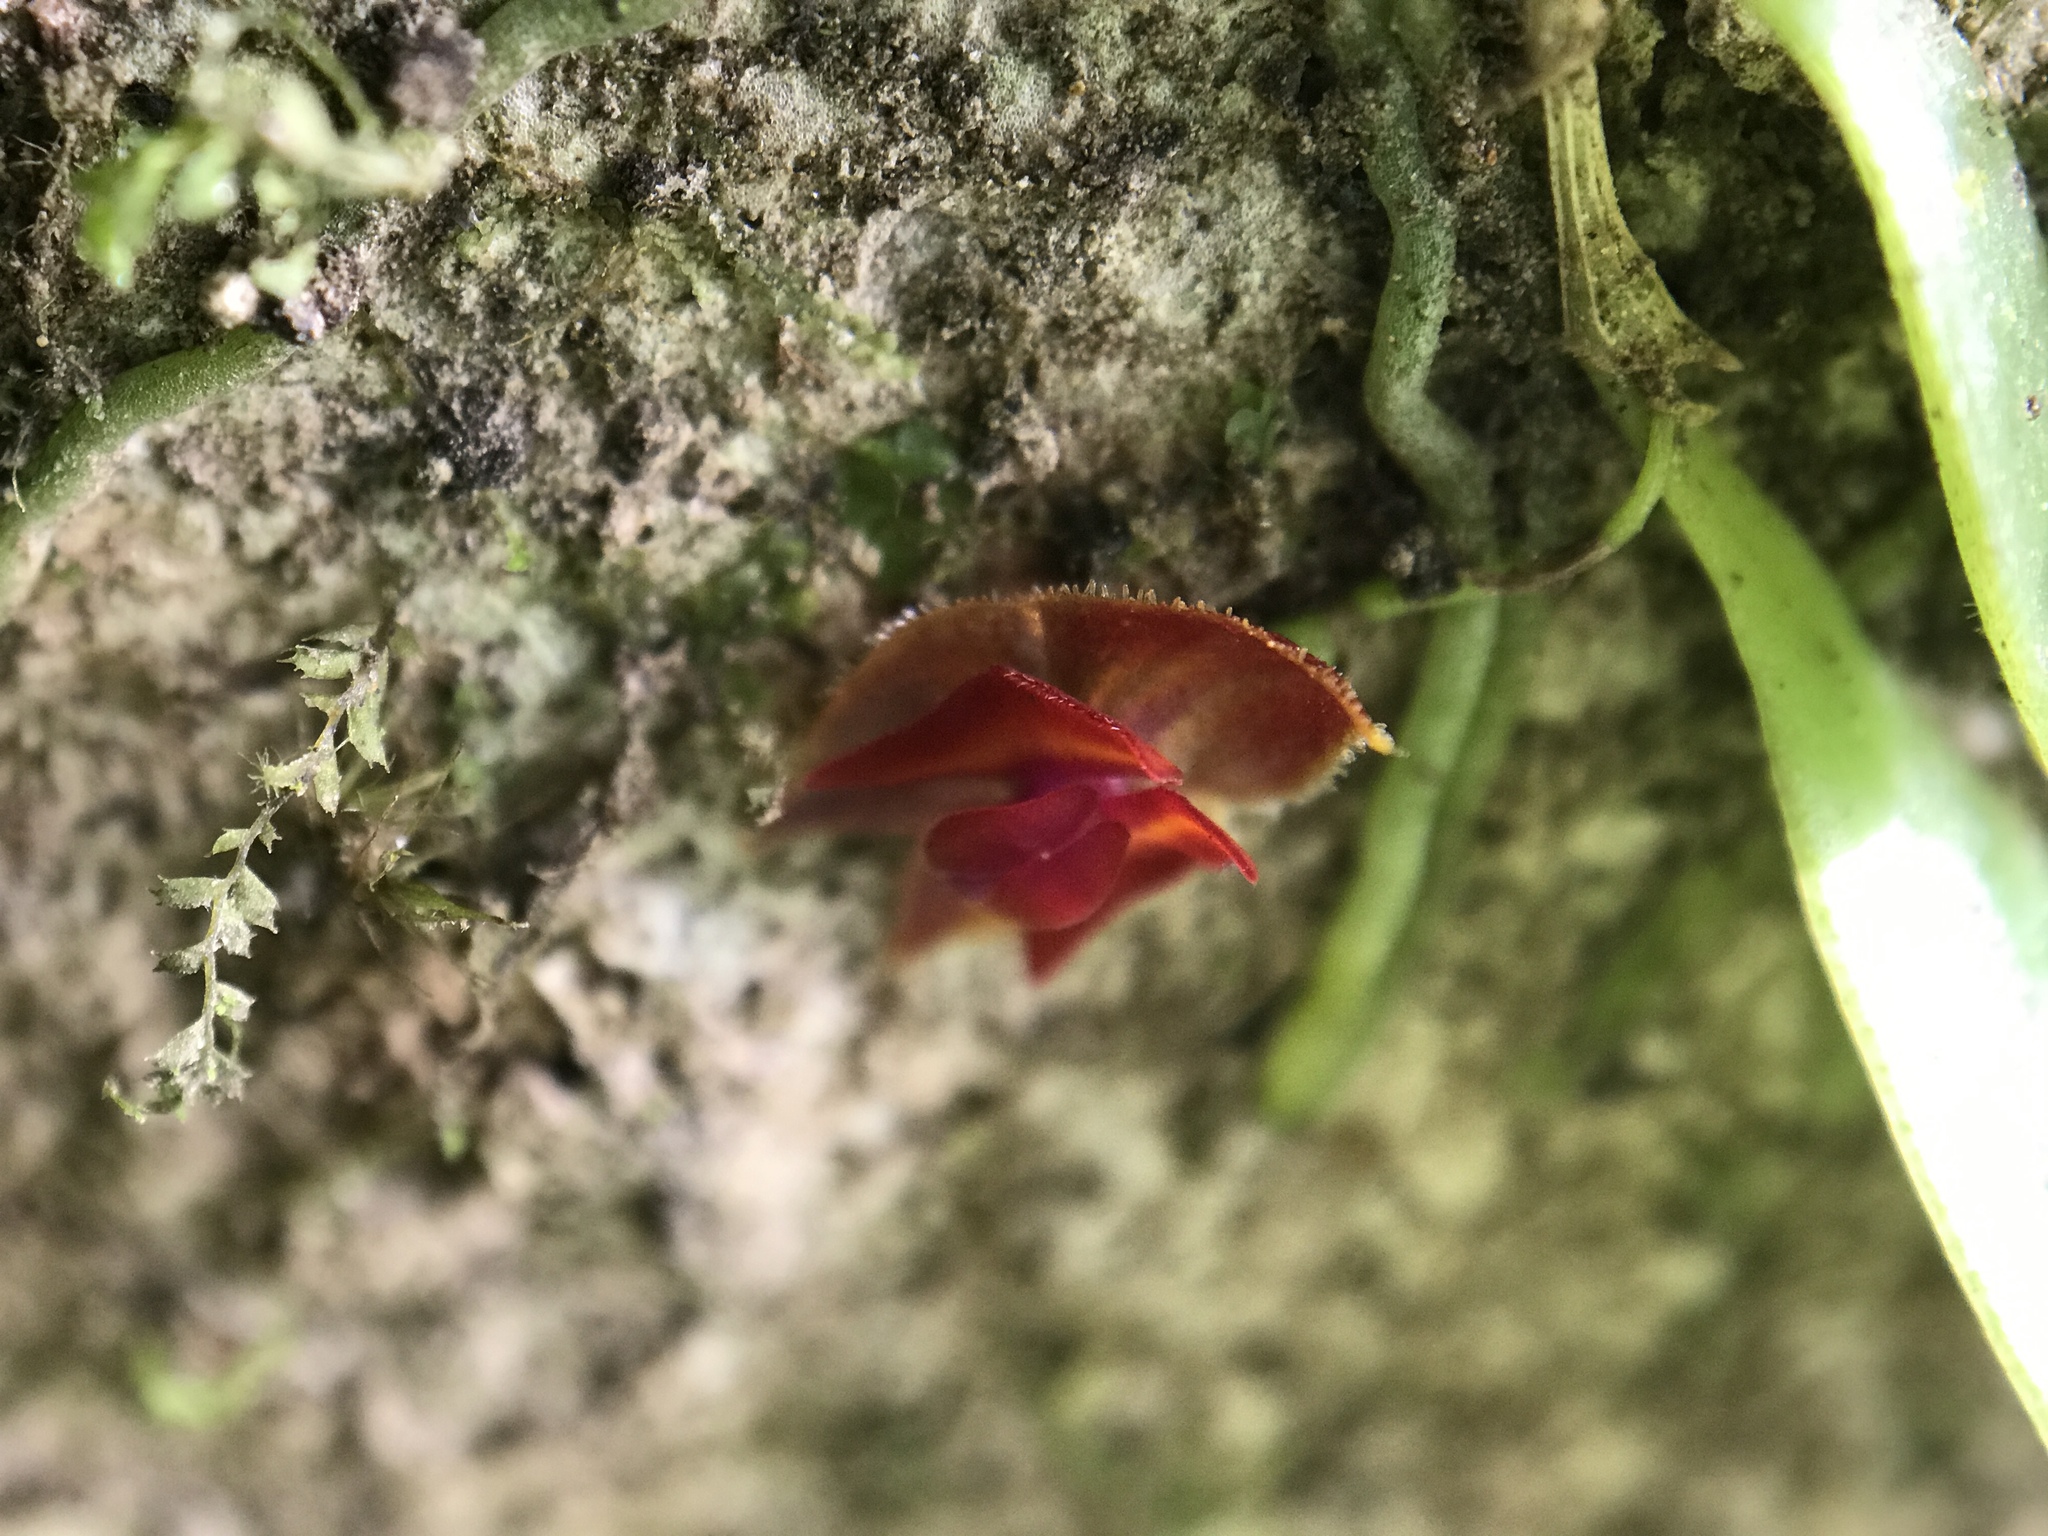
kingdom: Plantae
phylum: Tracheophyta
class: Liliopsida
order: Asparagales
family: Orchidaceae
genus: Lepanthes
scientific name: Lepanthes caritensis
